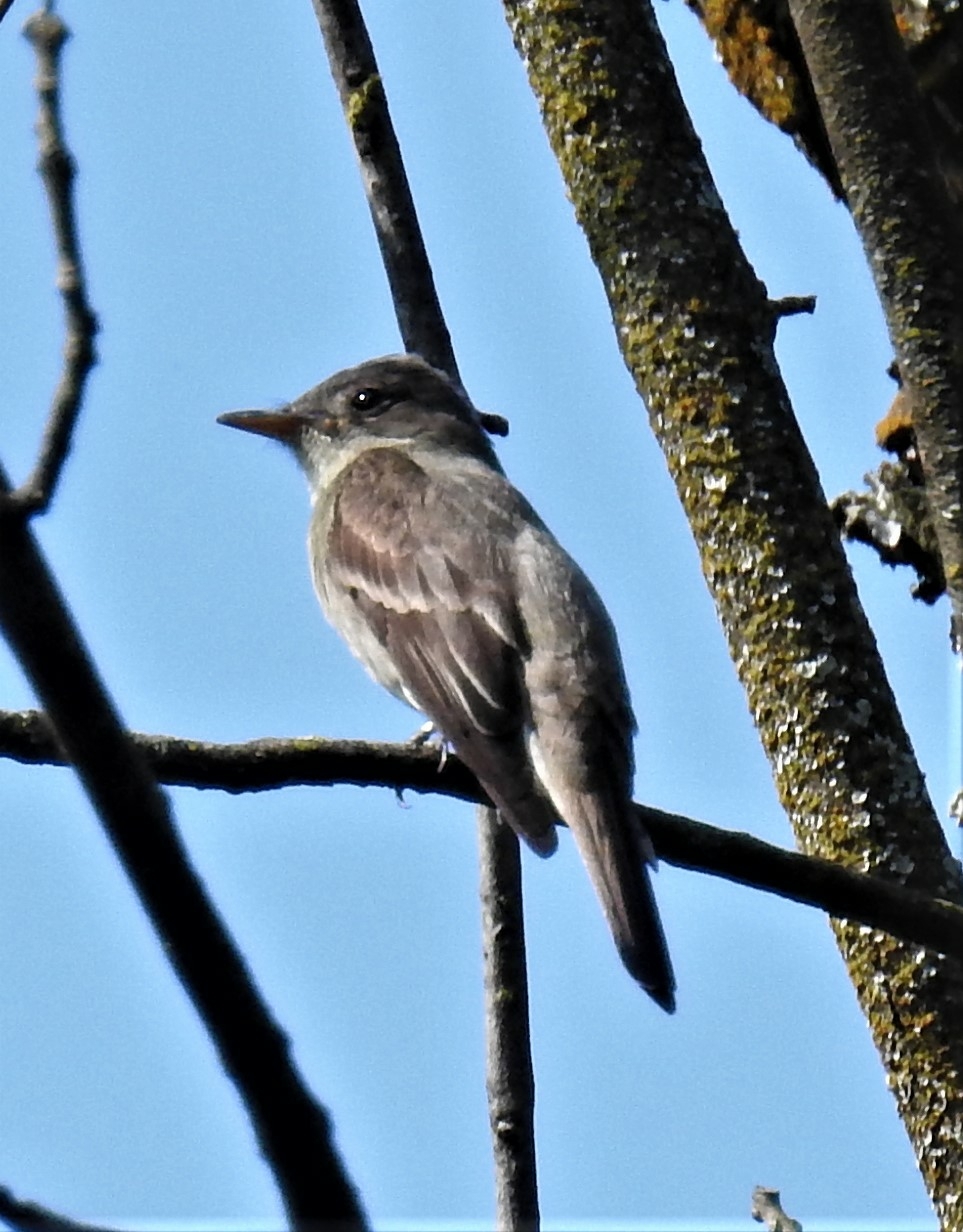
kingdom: Animalia
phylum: Chordata
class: Aves
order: Passeriformes
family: Tyrannidae
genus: Contopus
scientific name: Contopus virens
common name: Eastern wood-pewee
